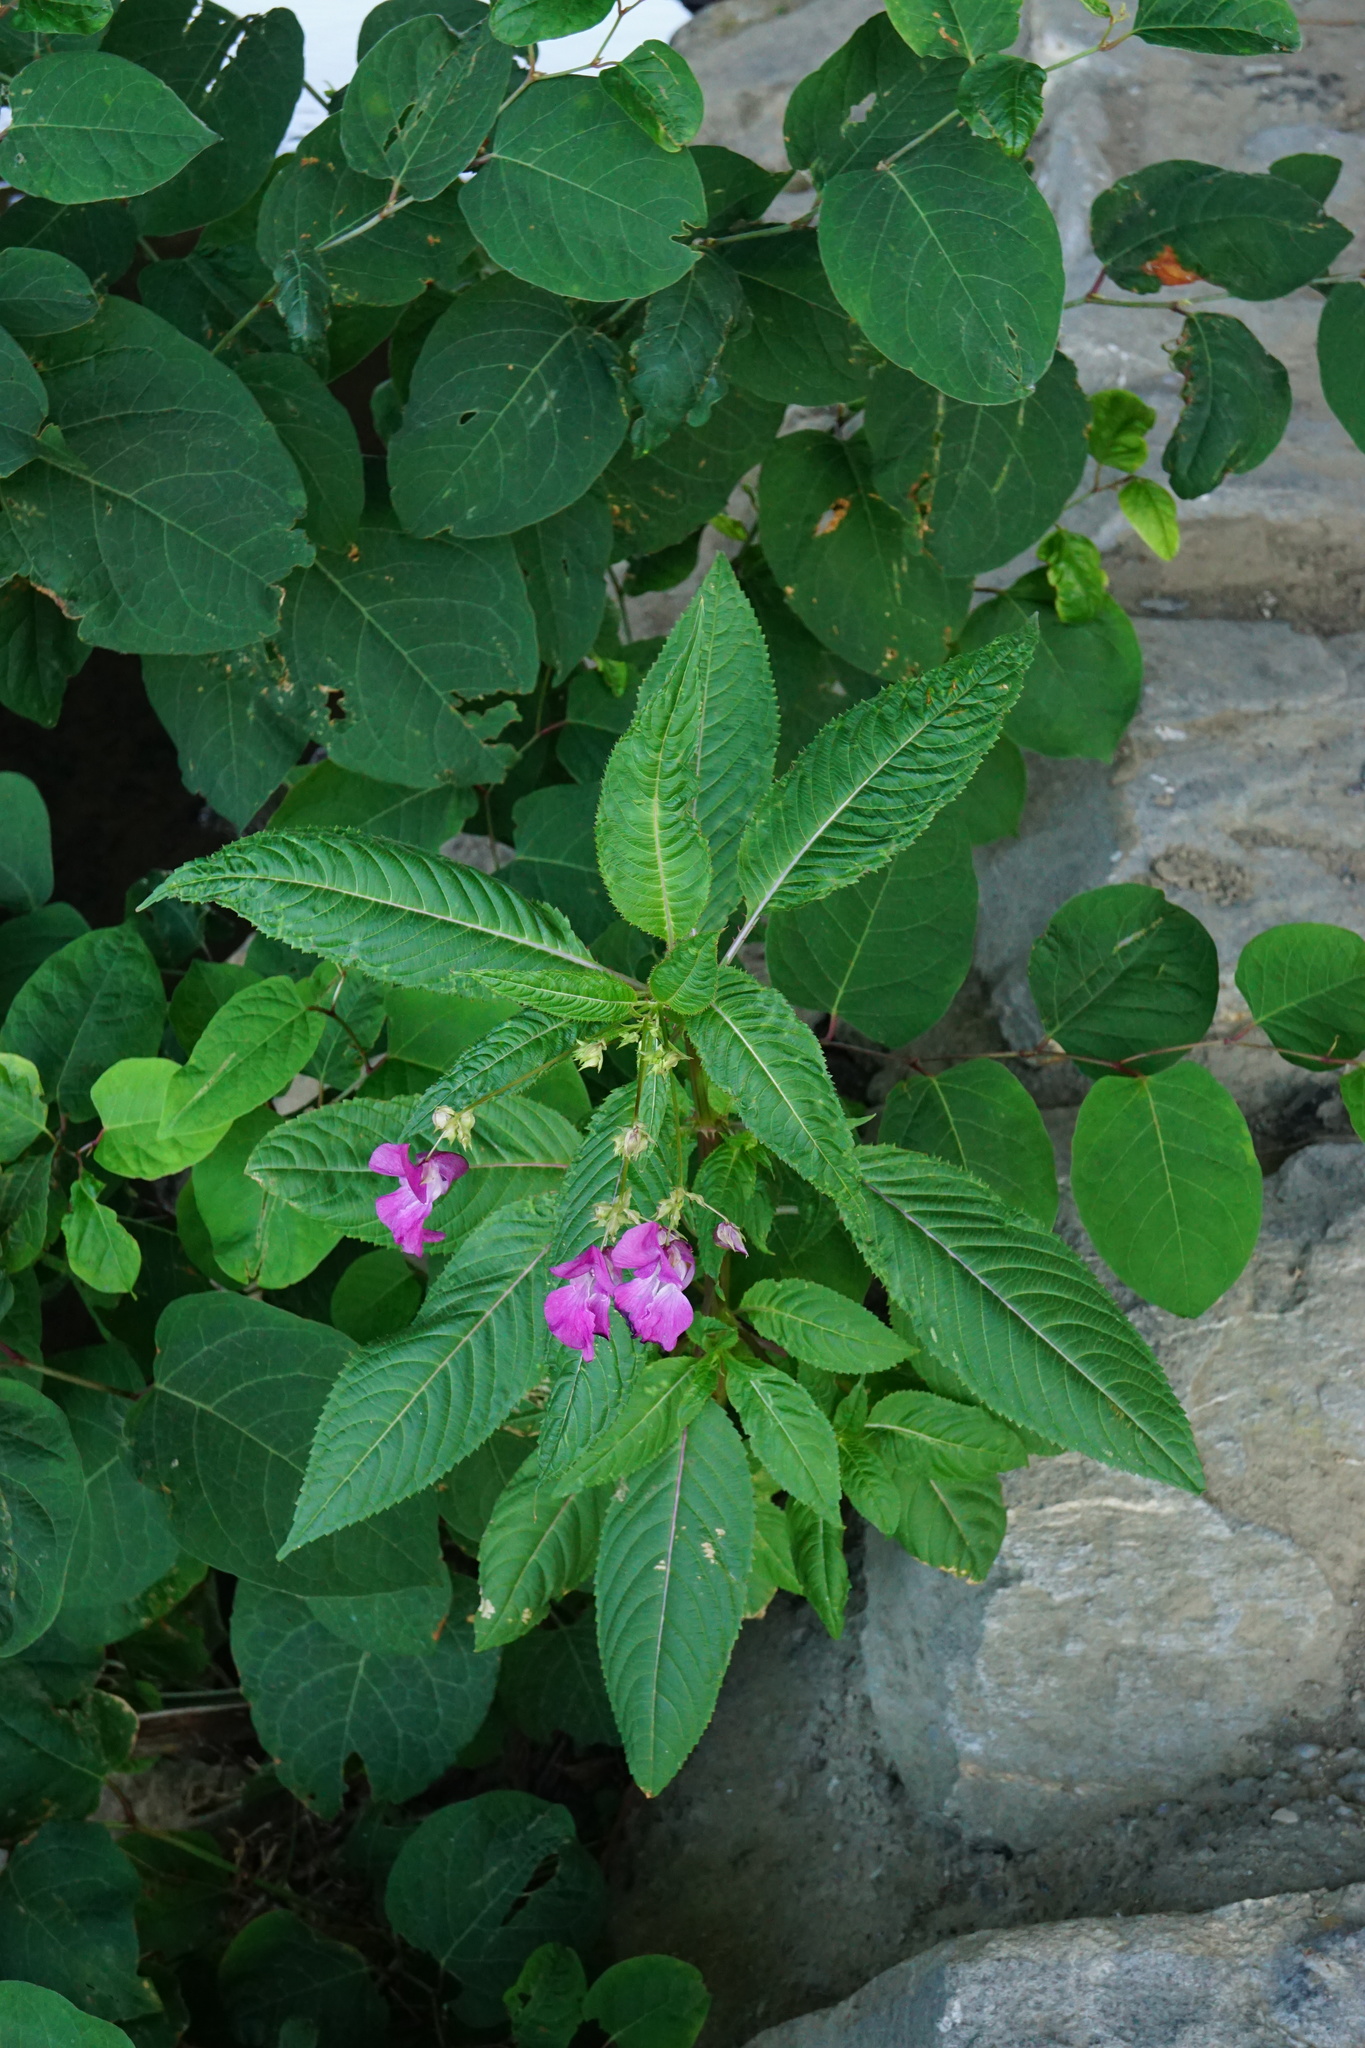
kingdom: Plantae
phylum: Tracheophyta
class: Magnoliopsida
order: Ericales
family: Balsaminaceae
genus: Impatiens
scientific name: Impatiens glandulifera
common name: Himalayan balsam
